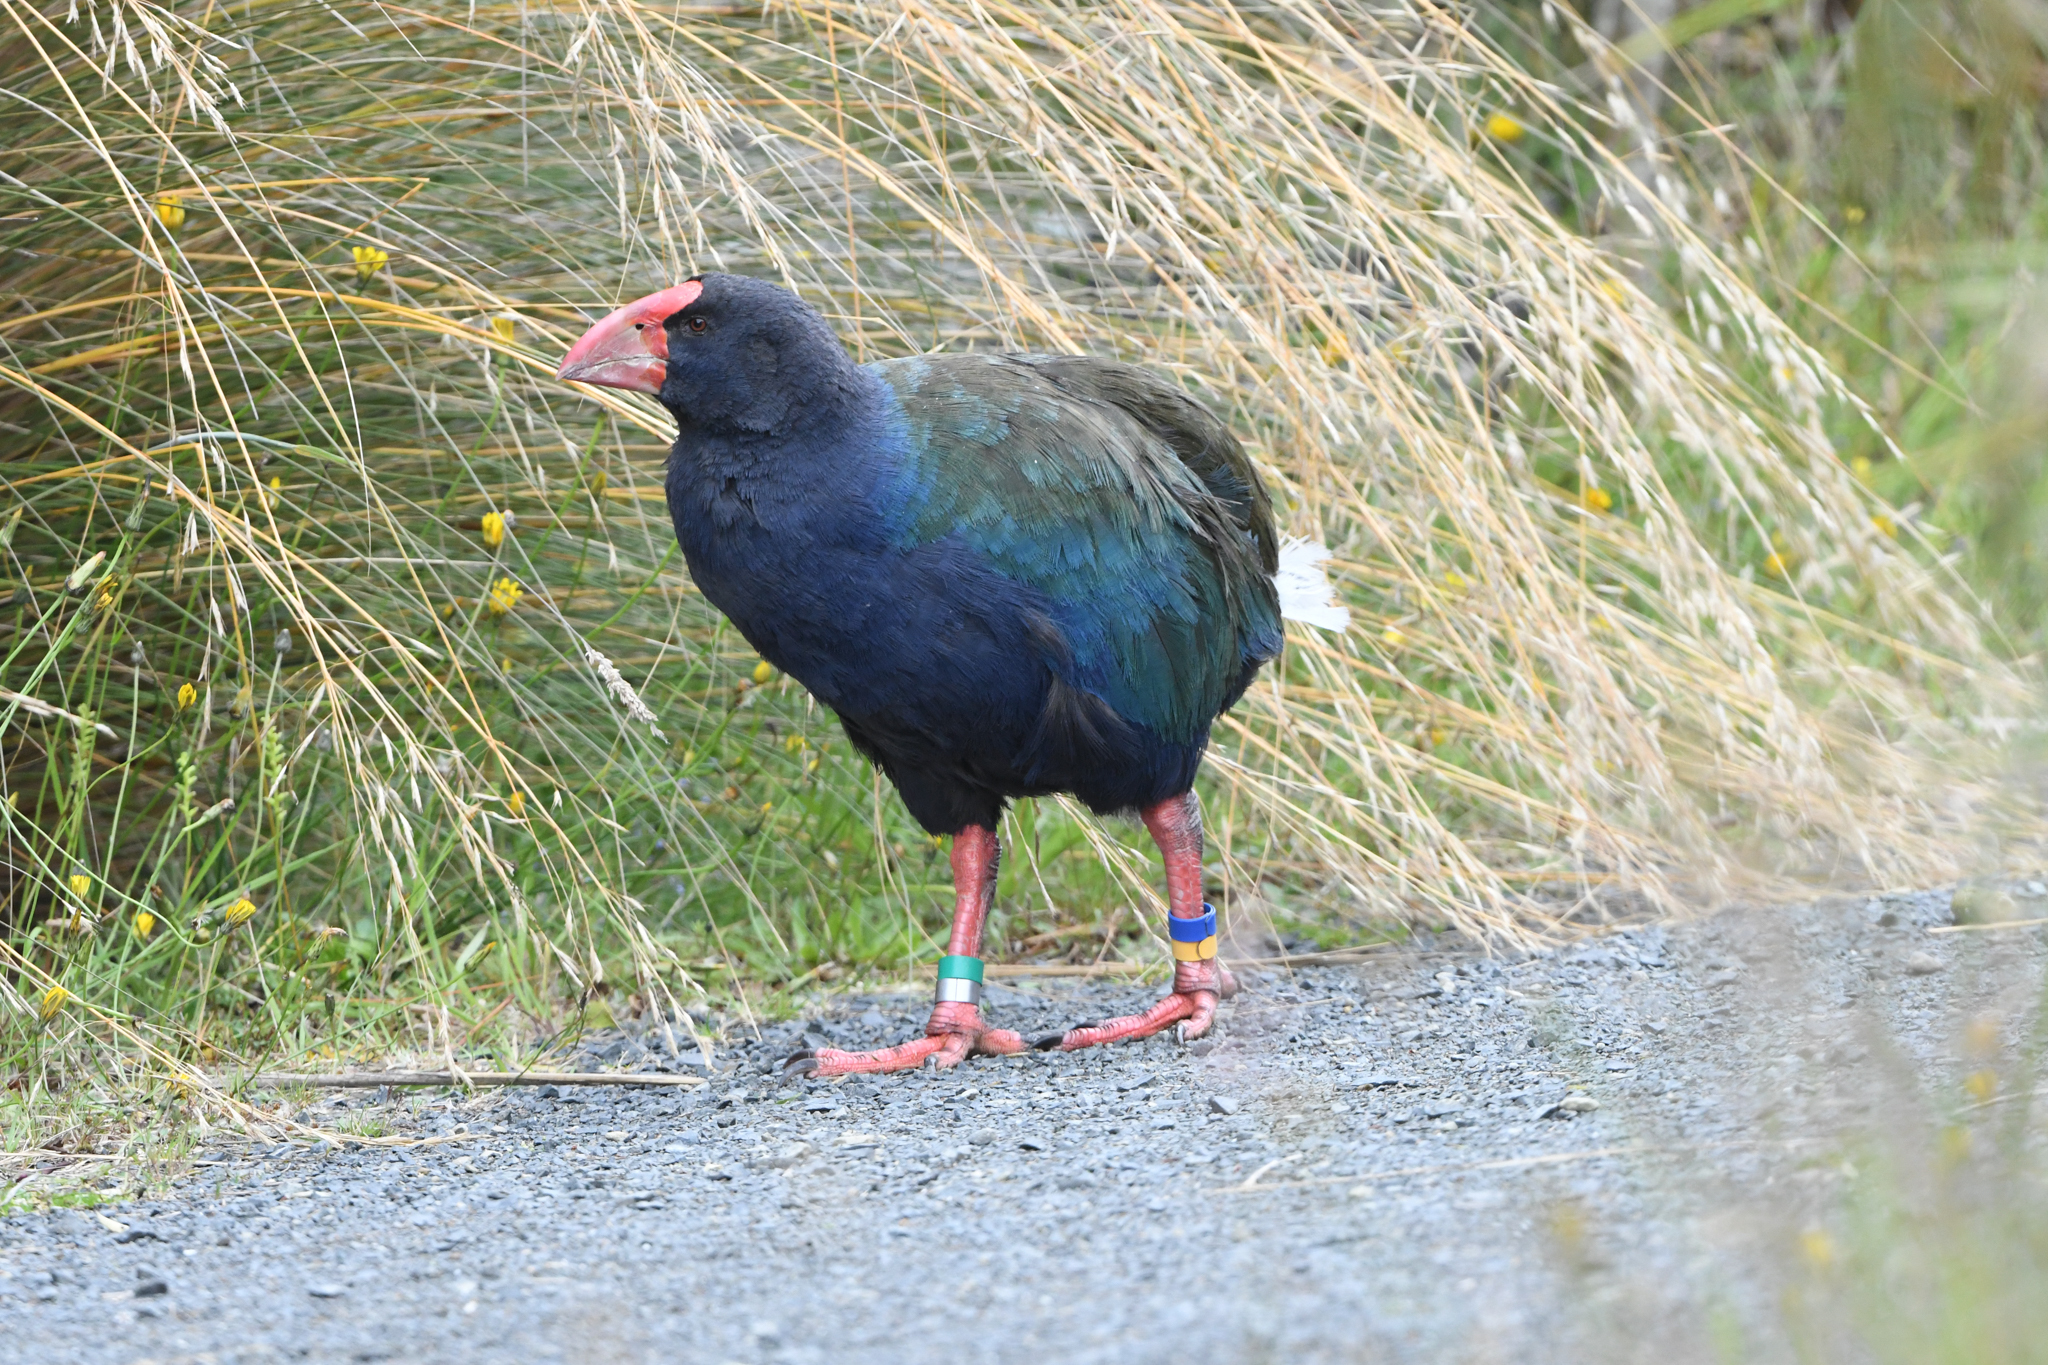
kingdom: Animalia
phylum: Chordata
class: Aves
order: Gruiformes
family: Rallidae
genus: Porphyrio
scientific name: Porphyrio hochstetteri
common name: South island takahe
